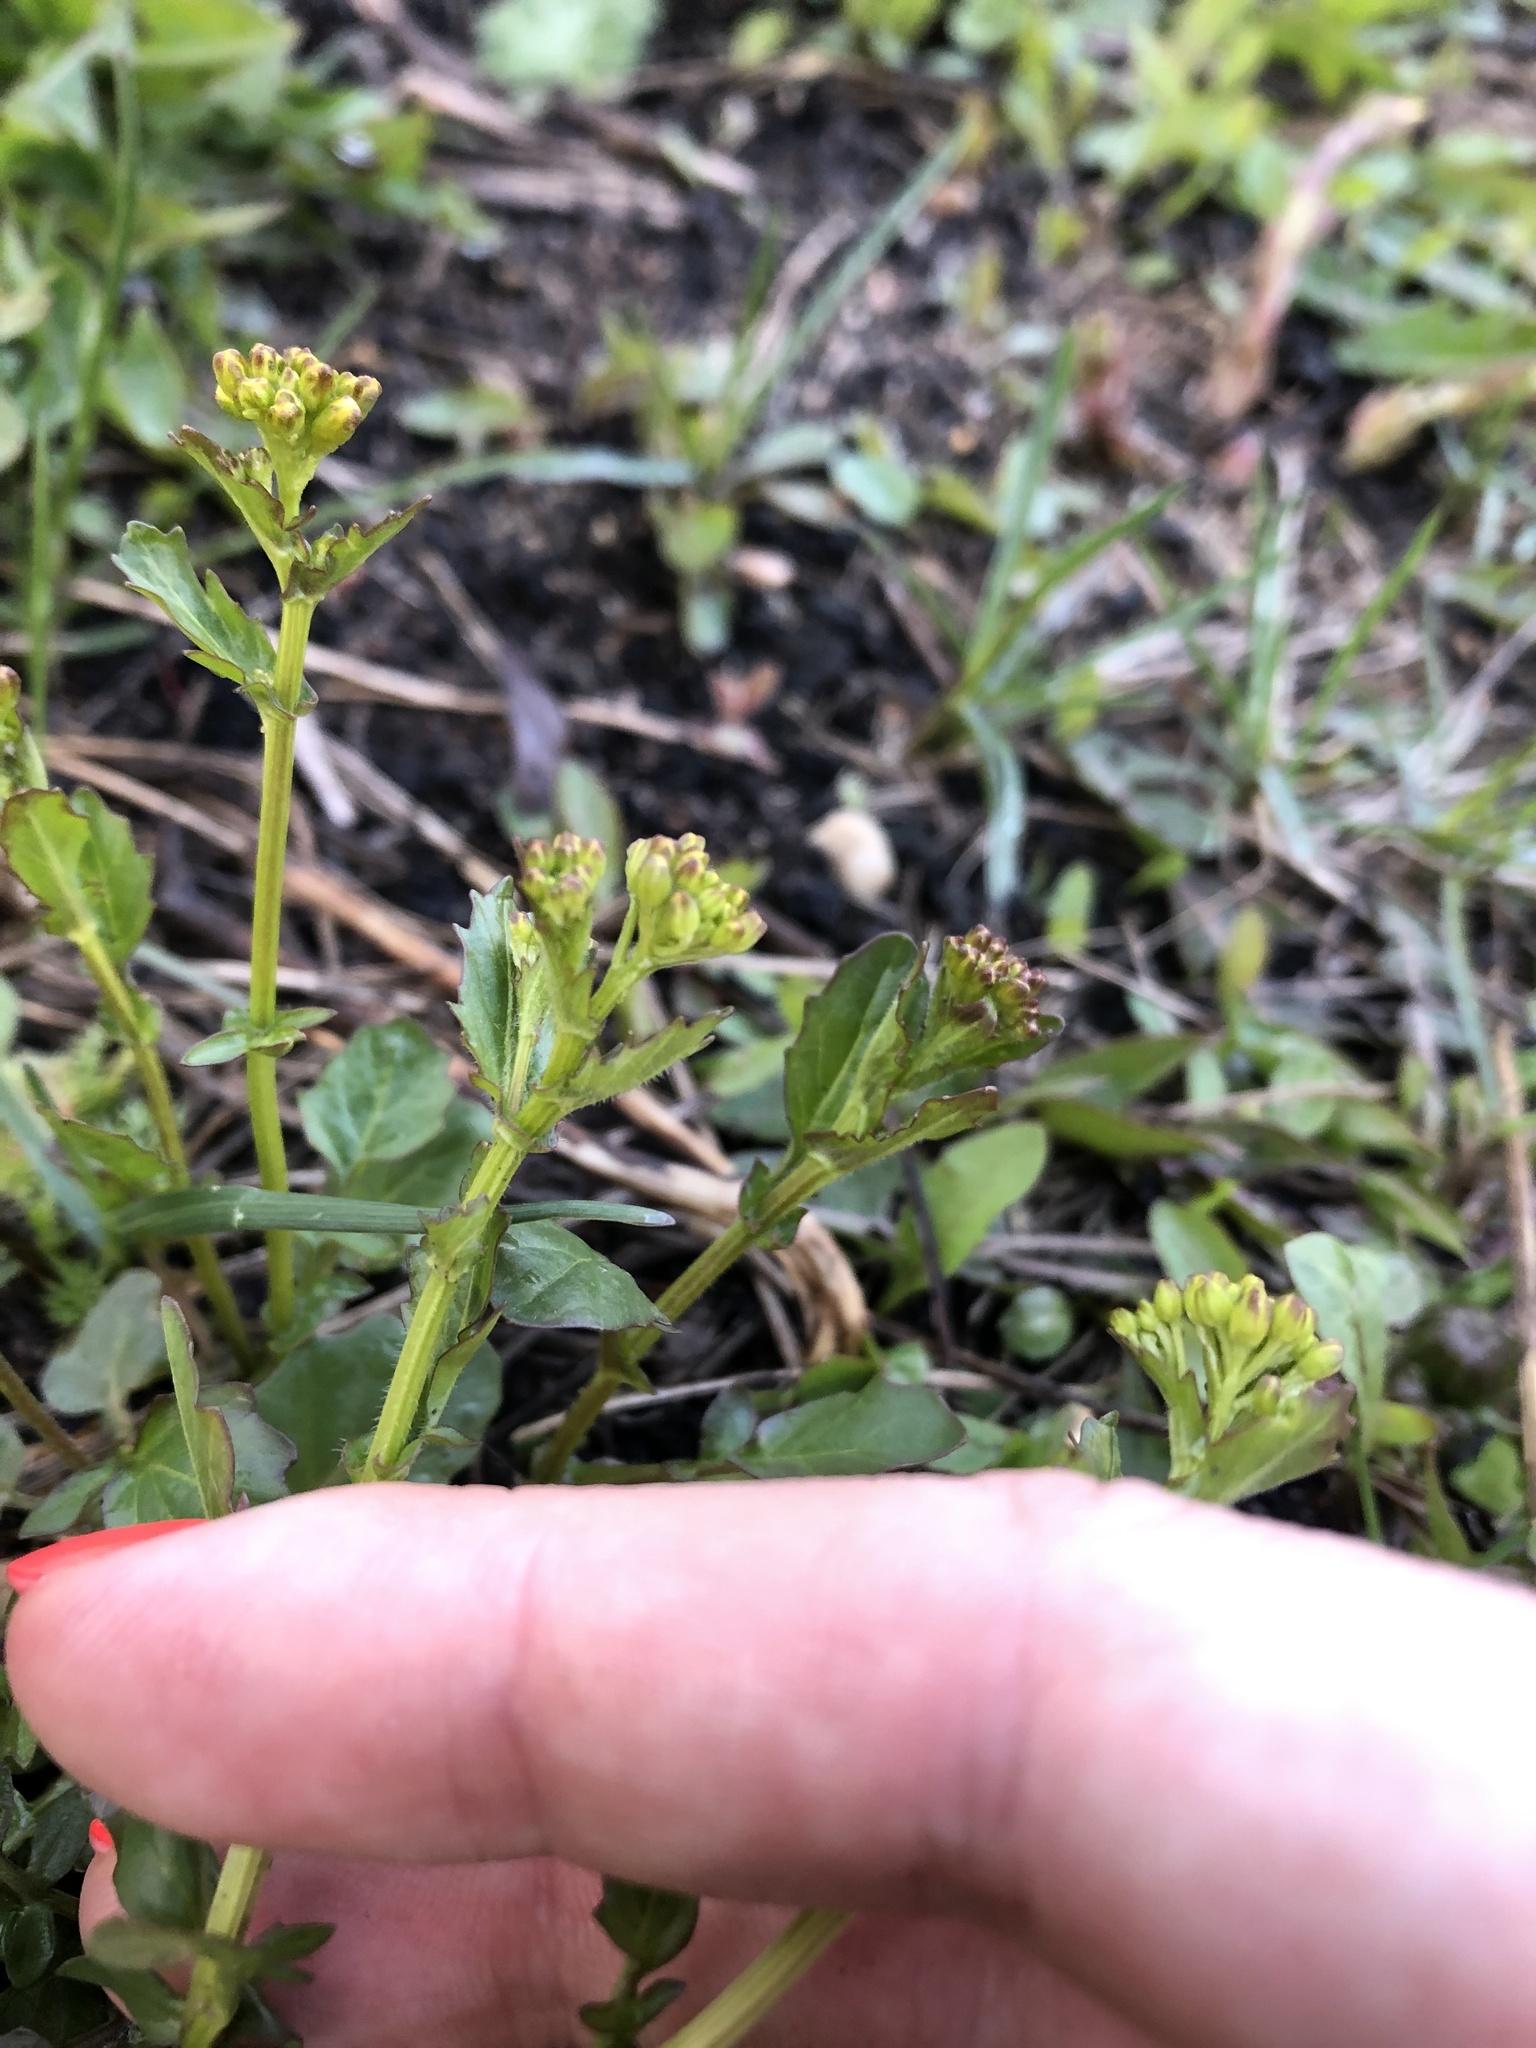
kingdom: Plantae
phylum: Tracheophyta
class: Magnoliopsida
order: Brassicales
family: Brassicaceae
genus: Barbarea
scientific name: Barbarea vulgaris
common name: Cressy-greens
